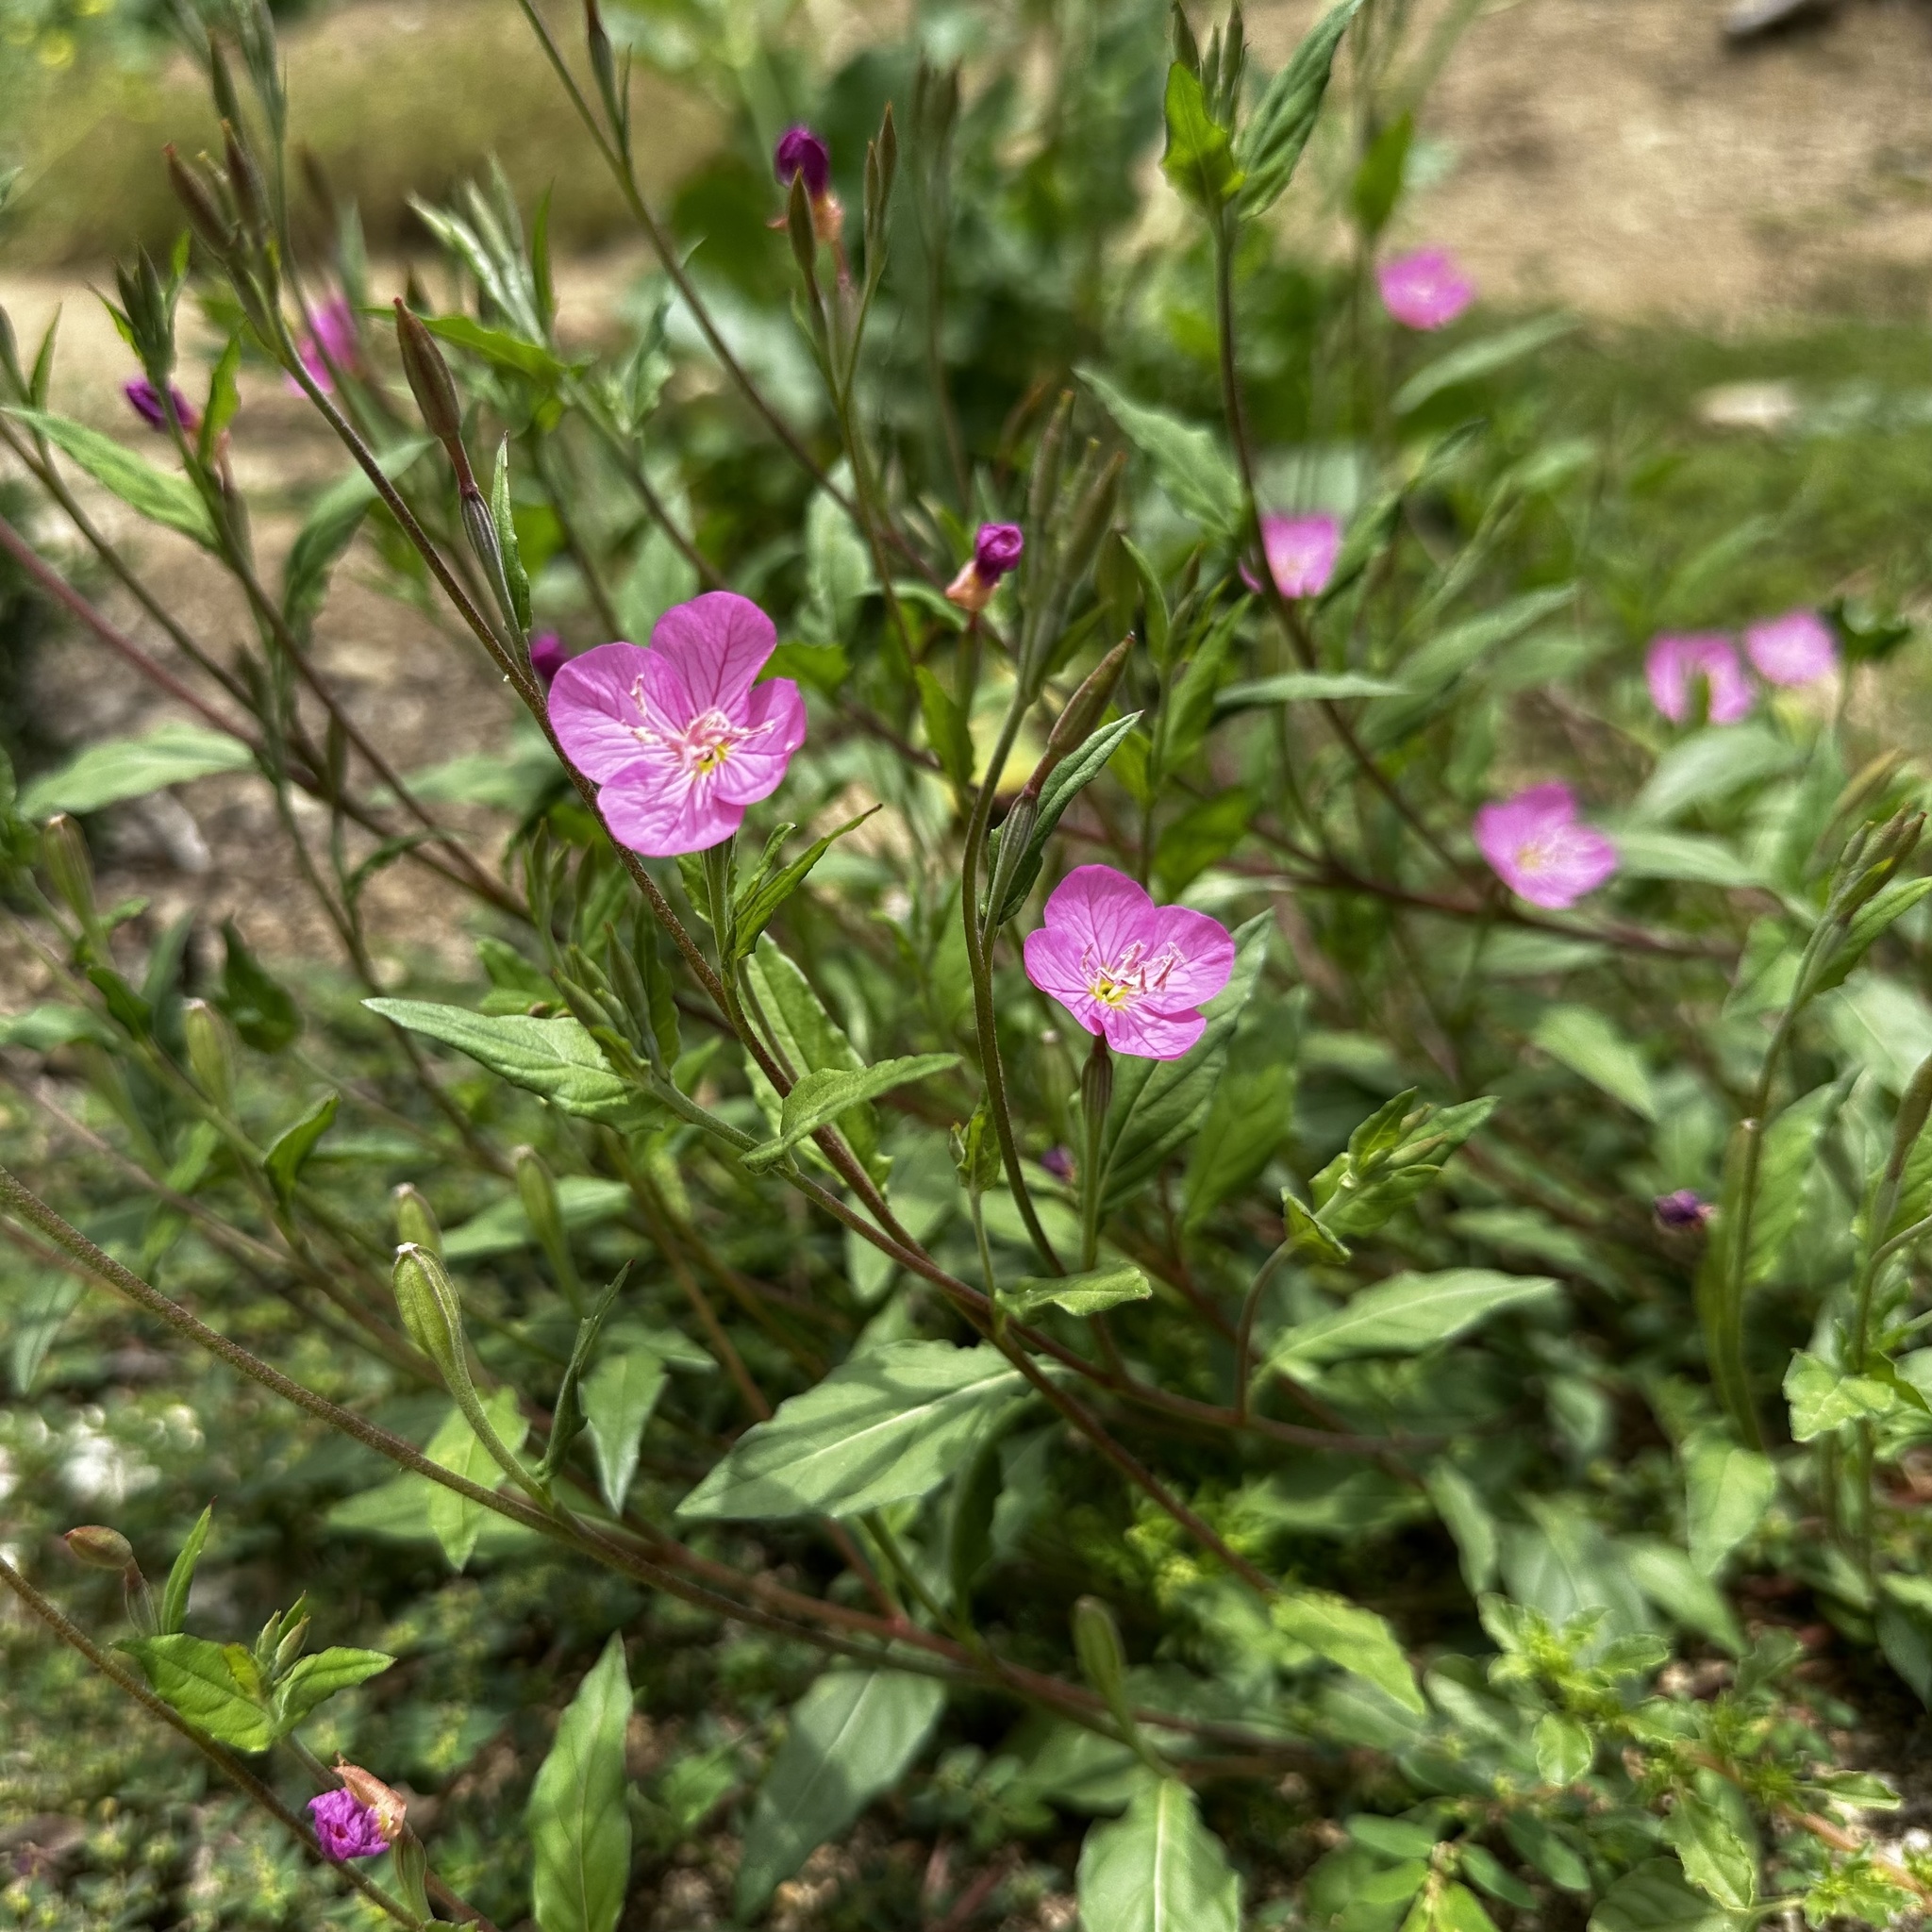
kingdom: Plantae
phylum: Tracheophyta
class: Magnoliopsida
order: Myrtales
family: Onagraceae
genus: Oenothera
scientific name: Oenothera rosea
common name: Rosy evening-primrose
